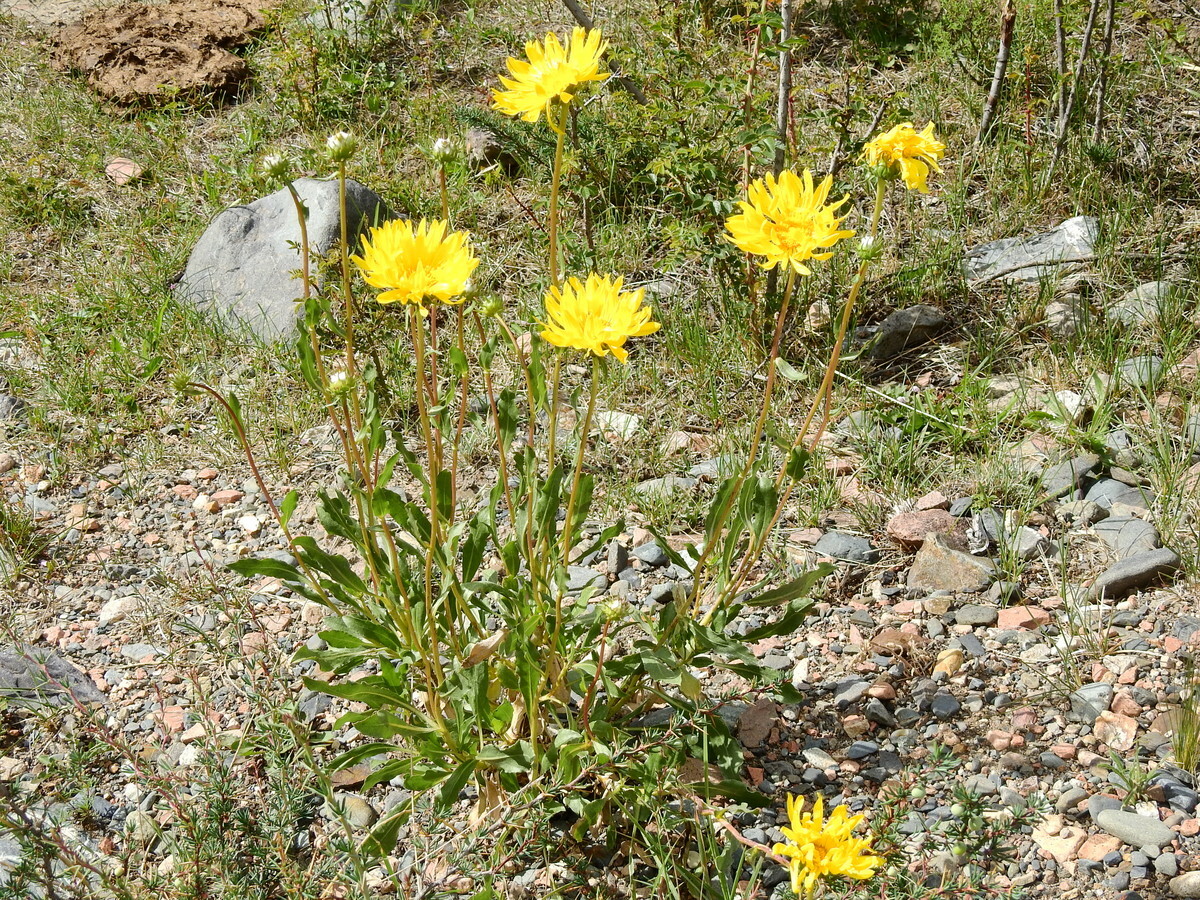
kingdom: Plantae
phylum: Tracheophyta
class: Magnoliopsida
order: Asterales
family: Asteraceae
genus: Grindelia
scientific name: Grindelia chiloensis
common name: Shrubby gumweed
